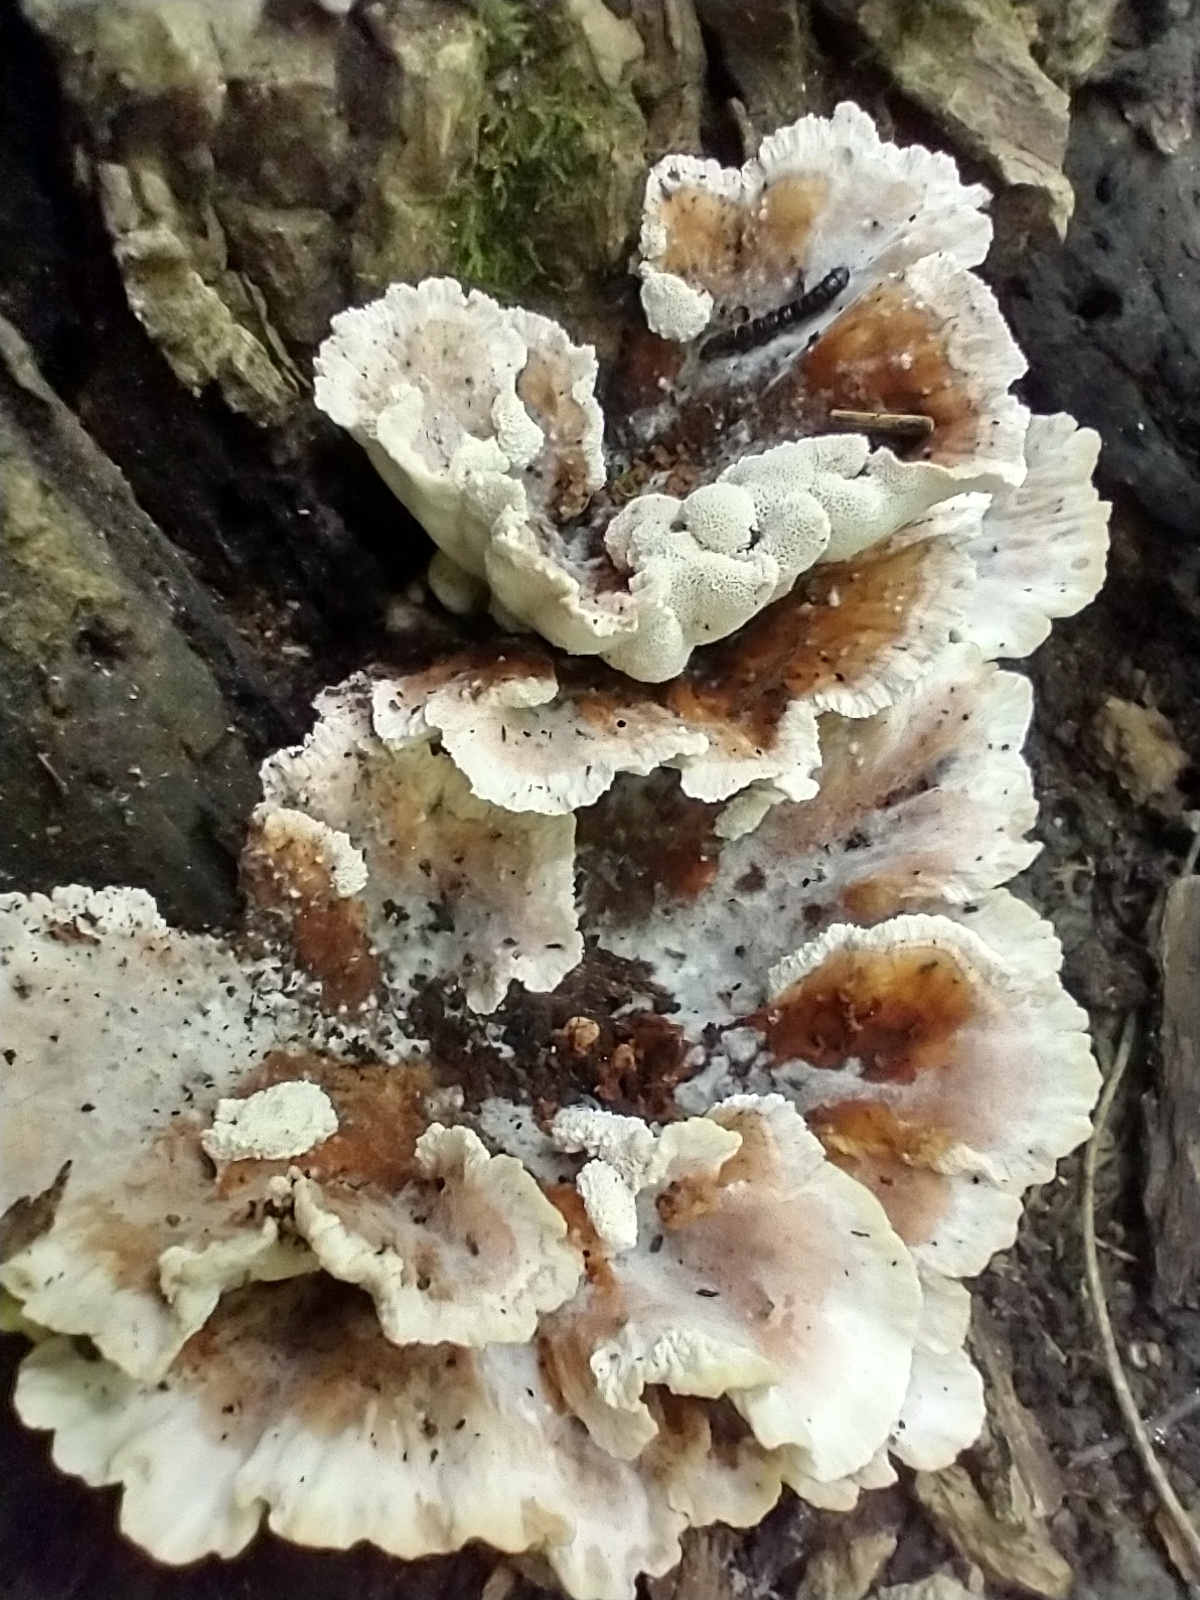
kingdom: Fungi
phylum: Basidiomycota
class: Agaricomycetes
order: Polyporales
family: Podoscyphaceae
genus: Abortiporus
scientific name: Abortiporus biennis
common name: Blushing rosette
